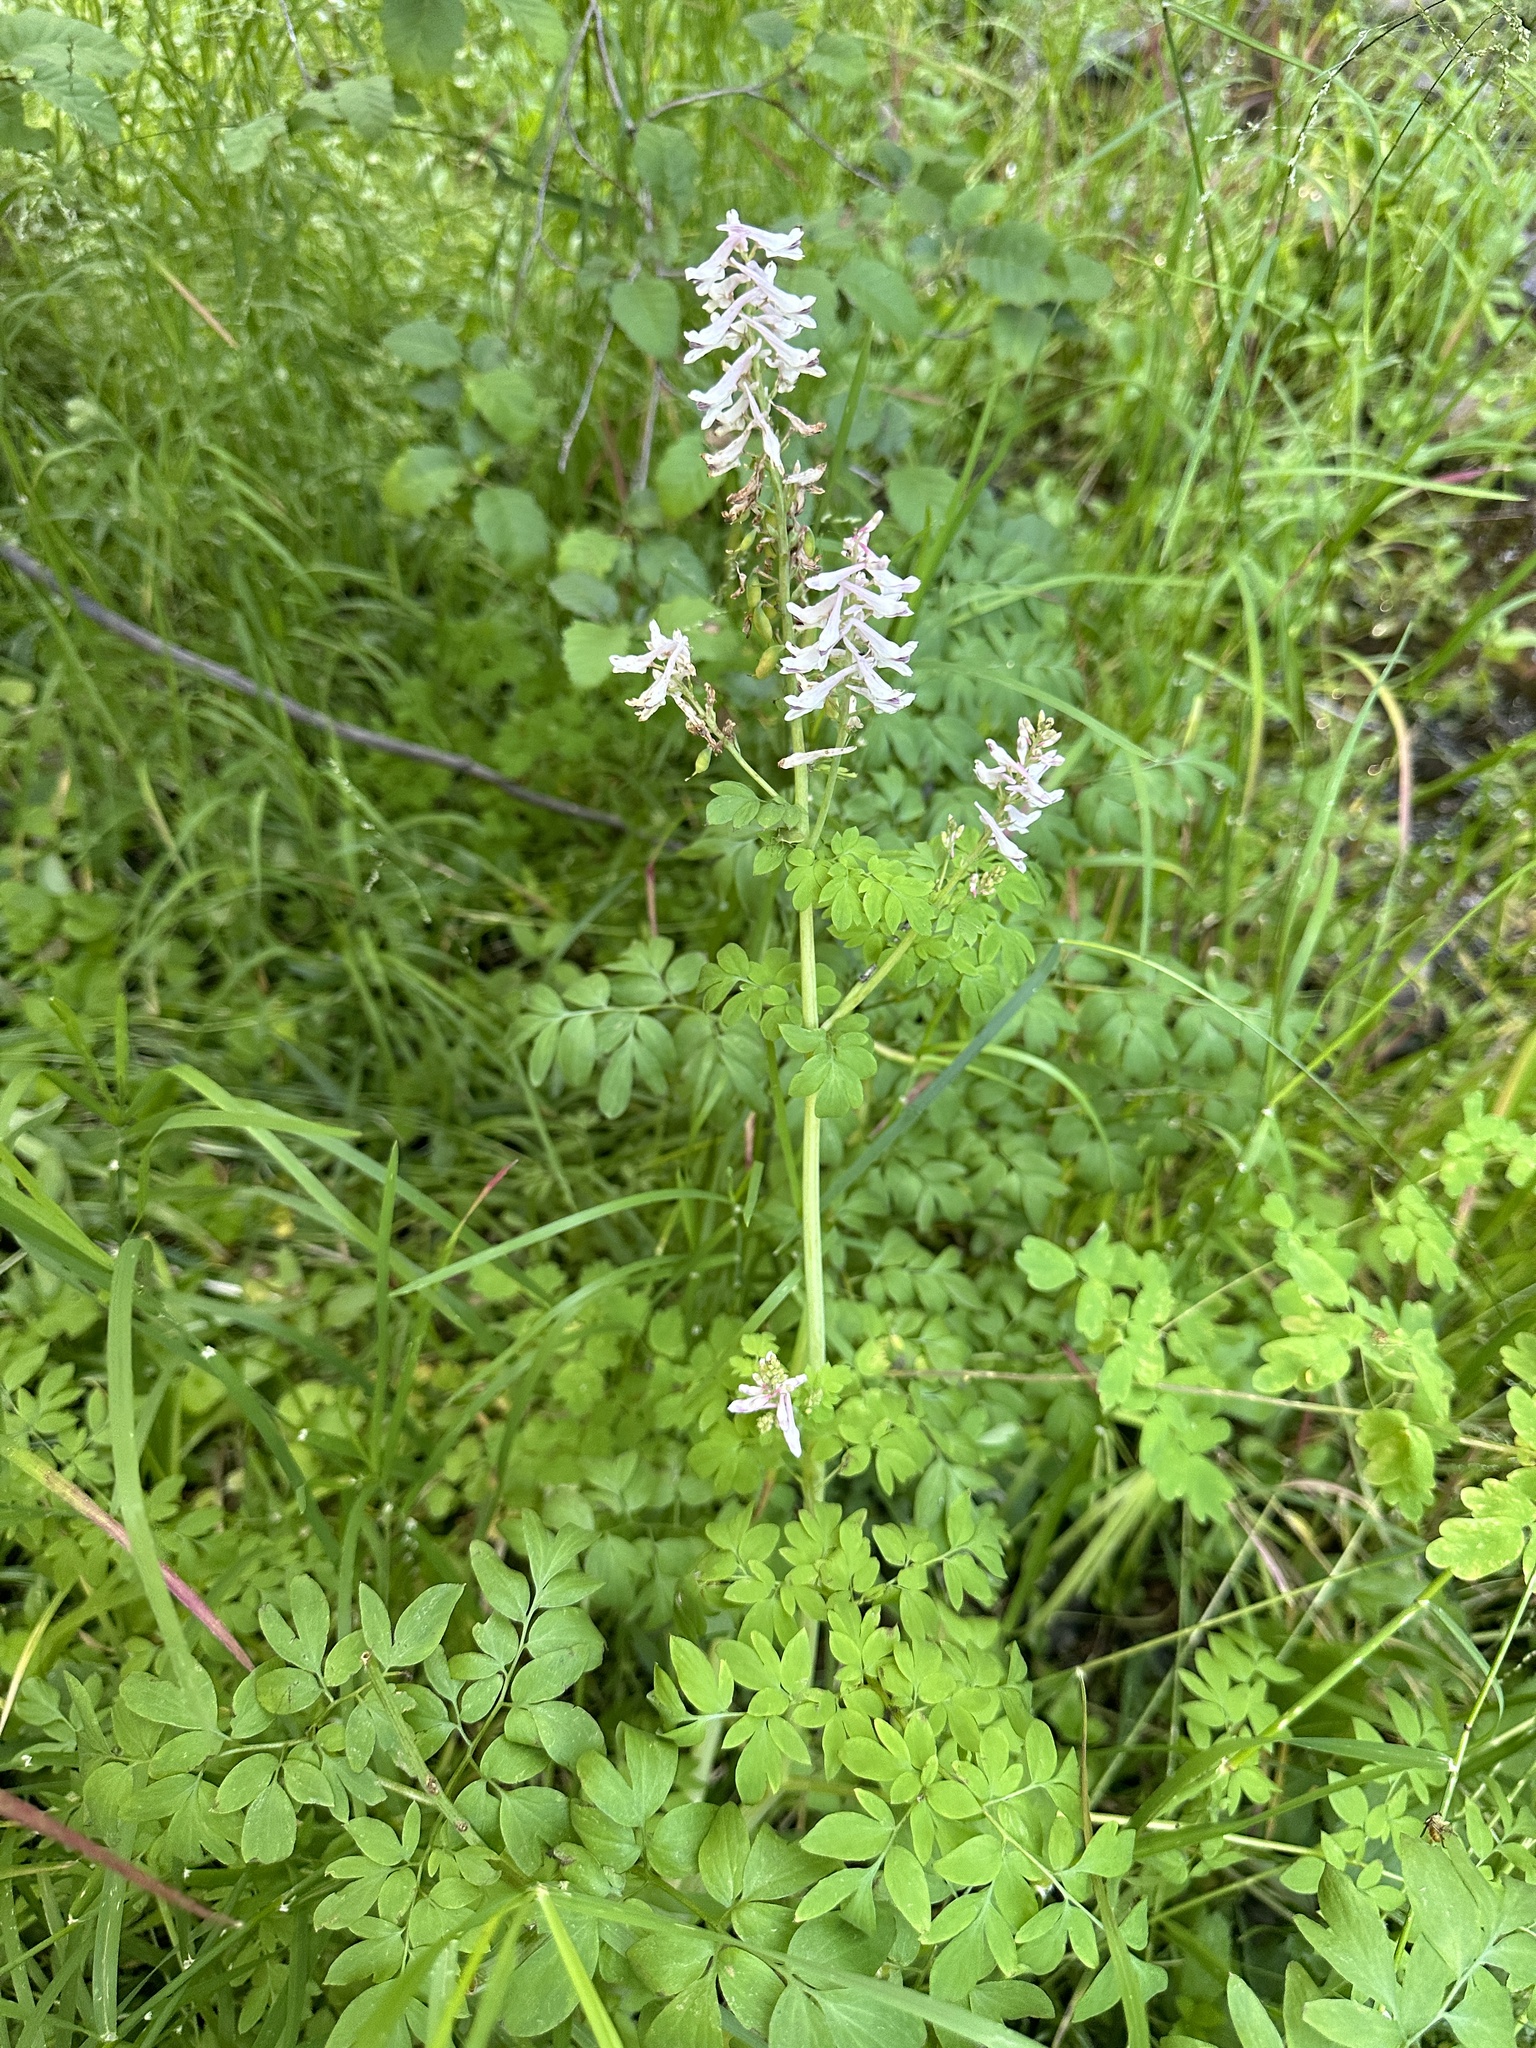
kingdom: Plantae
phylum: Tracheophyta
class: Magnoliopsida
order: Ranunculales
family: Papaveraceae
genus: Corydalis
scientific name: Corydalis caseana
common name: Fitweed
